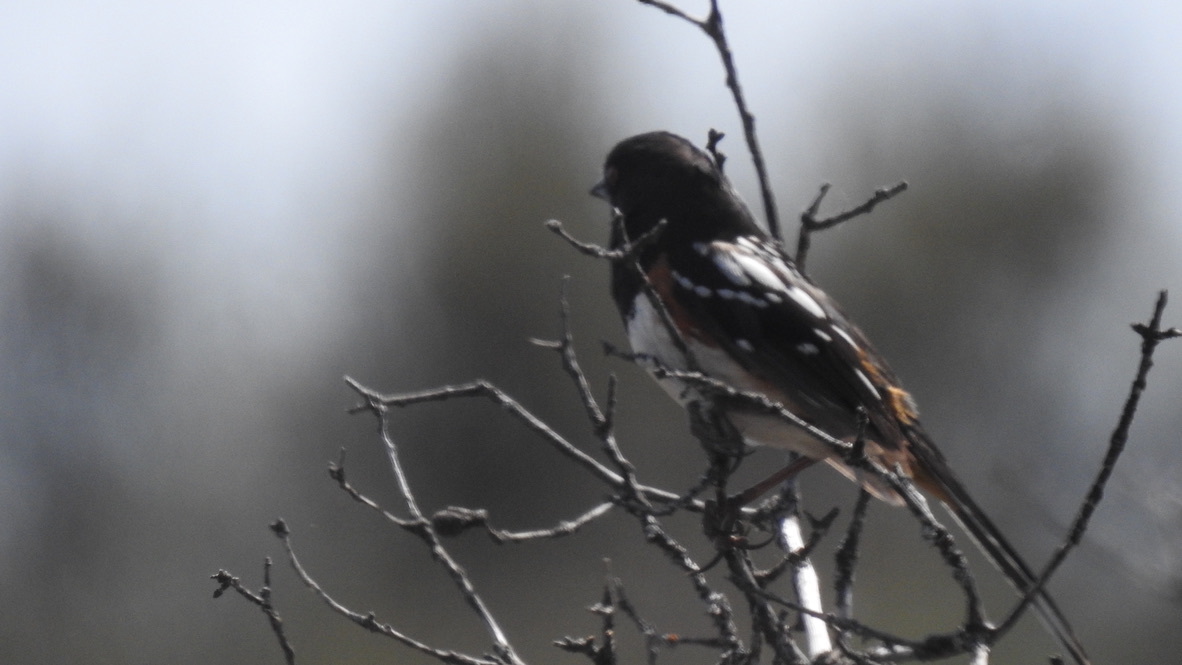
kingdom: Animalia
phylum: Chordata
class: Aves
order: Passeriformes
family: Passerellidae
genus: Pipilo
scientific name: Pipilo maculatus
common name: Spotted towhee
